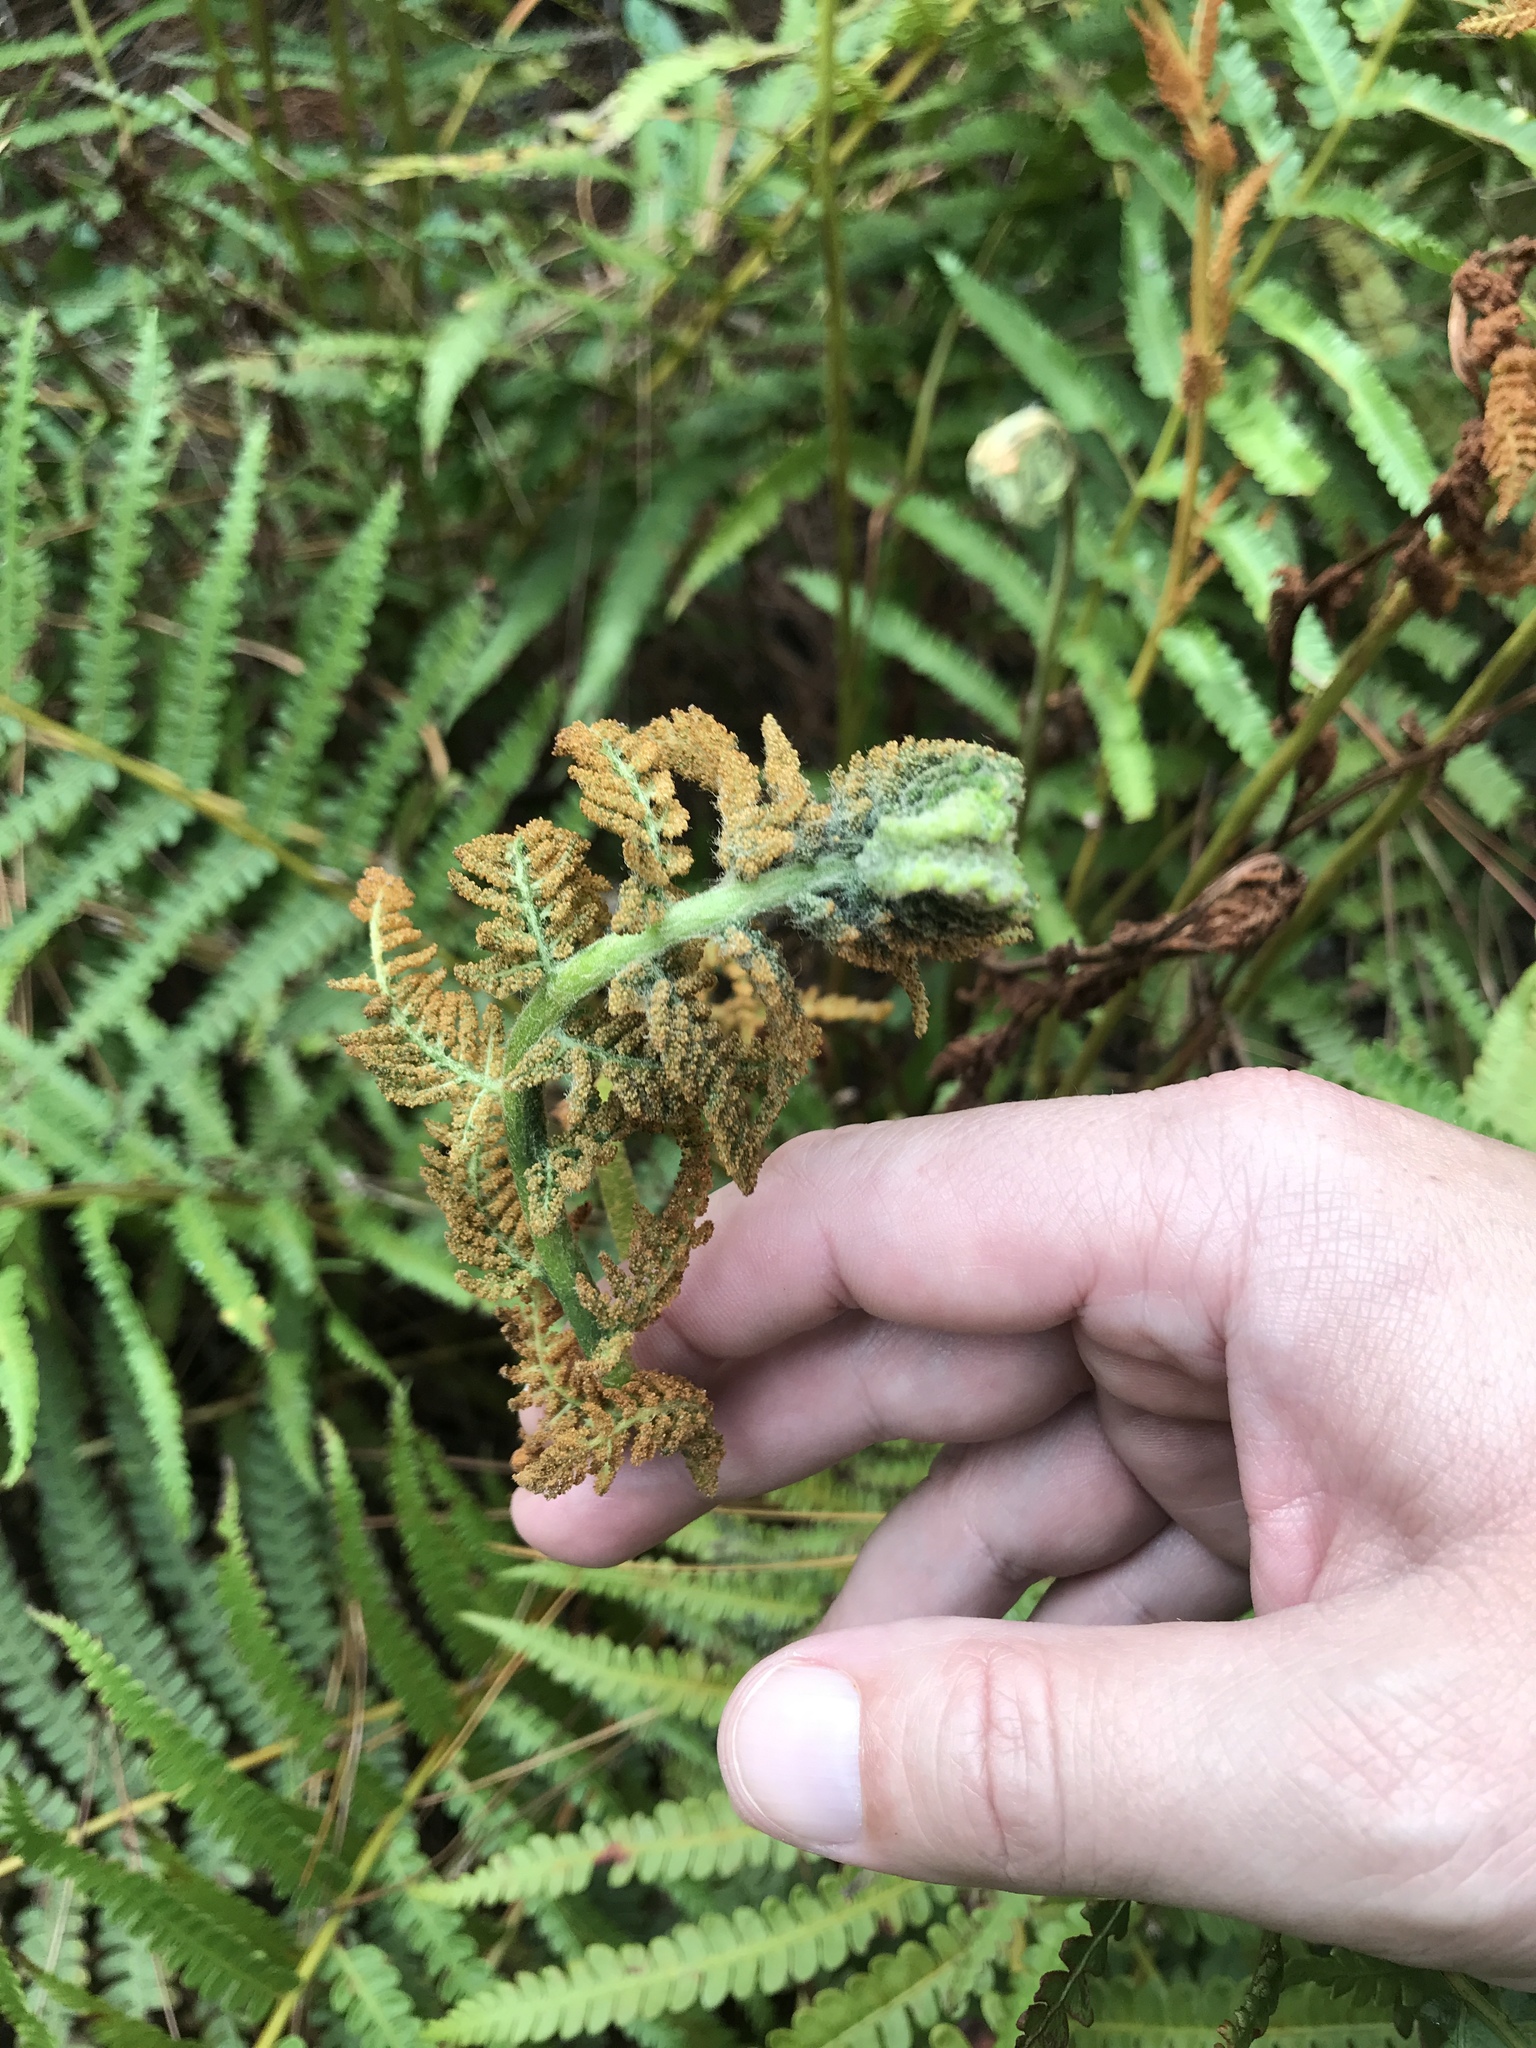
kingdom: Plantae
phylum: Tracheophyta
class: Polypodiopsida
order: Osmundales
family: Osmundaceae
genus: Osmundastrum
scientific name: Osmundastrum cinnamomeum
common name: Cinnamon fern
